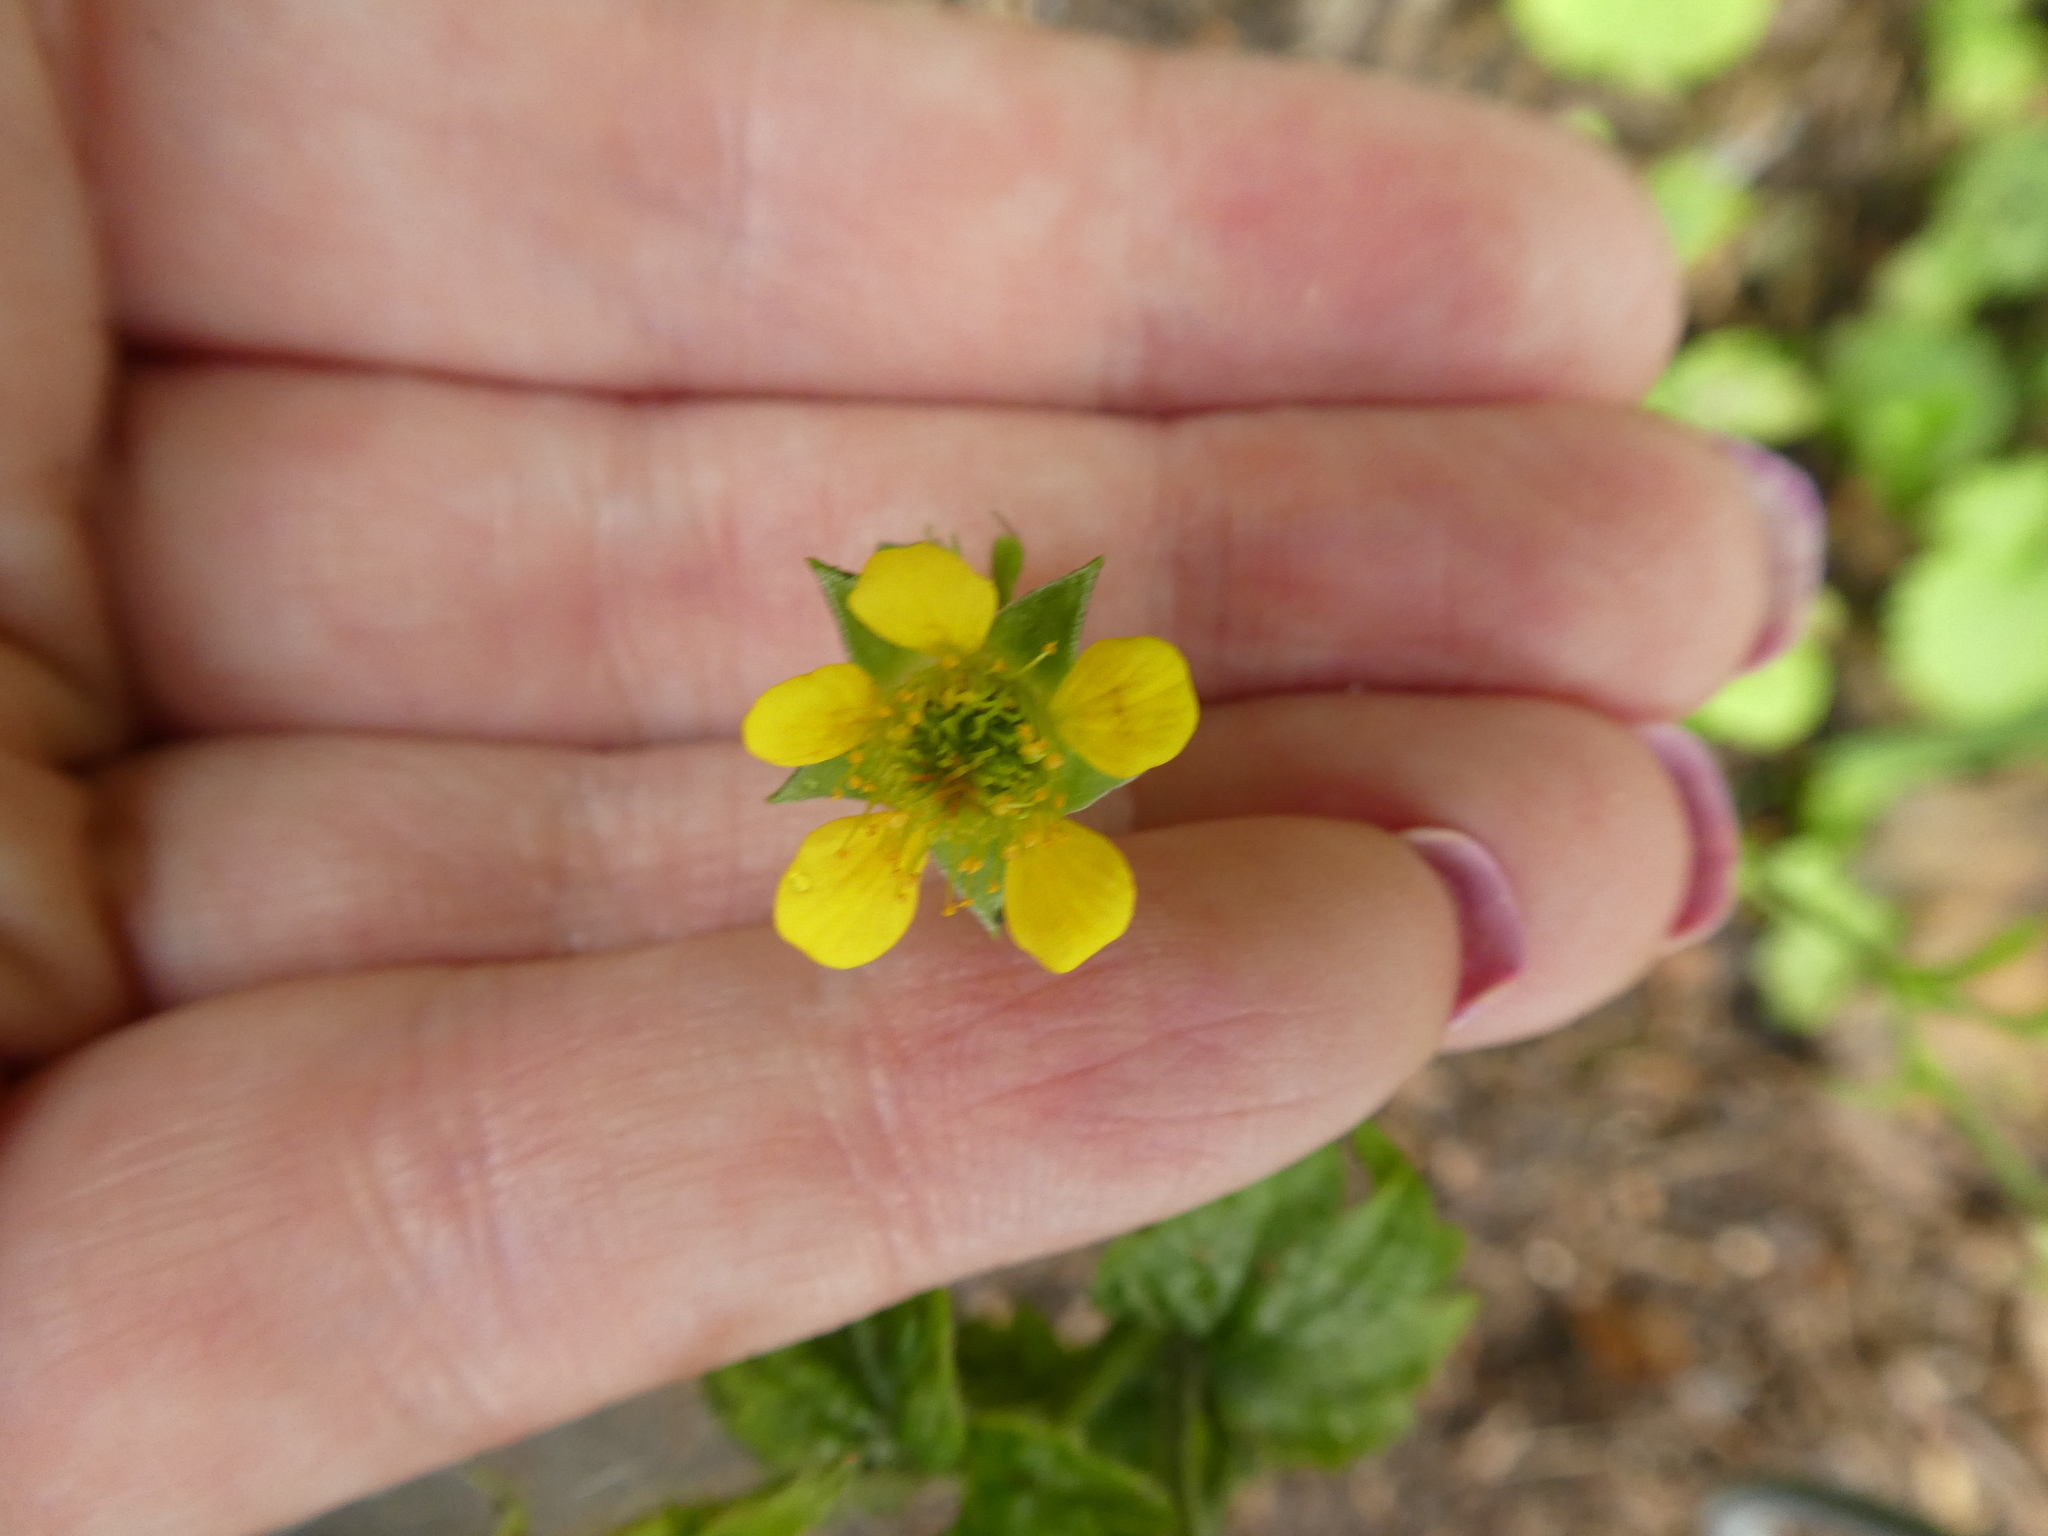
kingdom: Plantae
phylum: Tracheophyta
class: Magnoliopsida
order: Rosales
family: Rosaceae
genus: Geum
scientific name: Geum urbanum
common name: Wood avens
